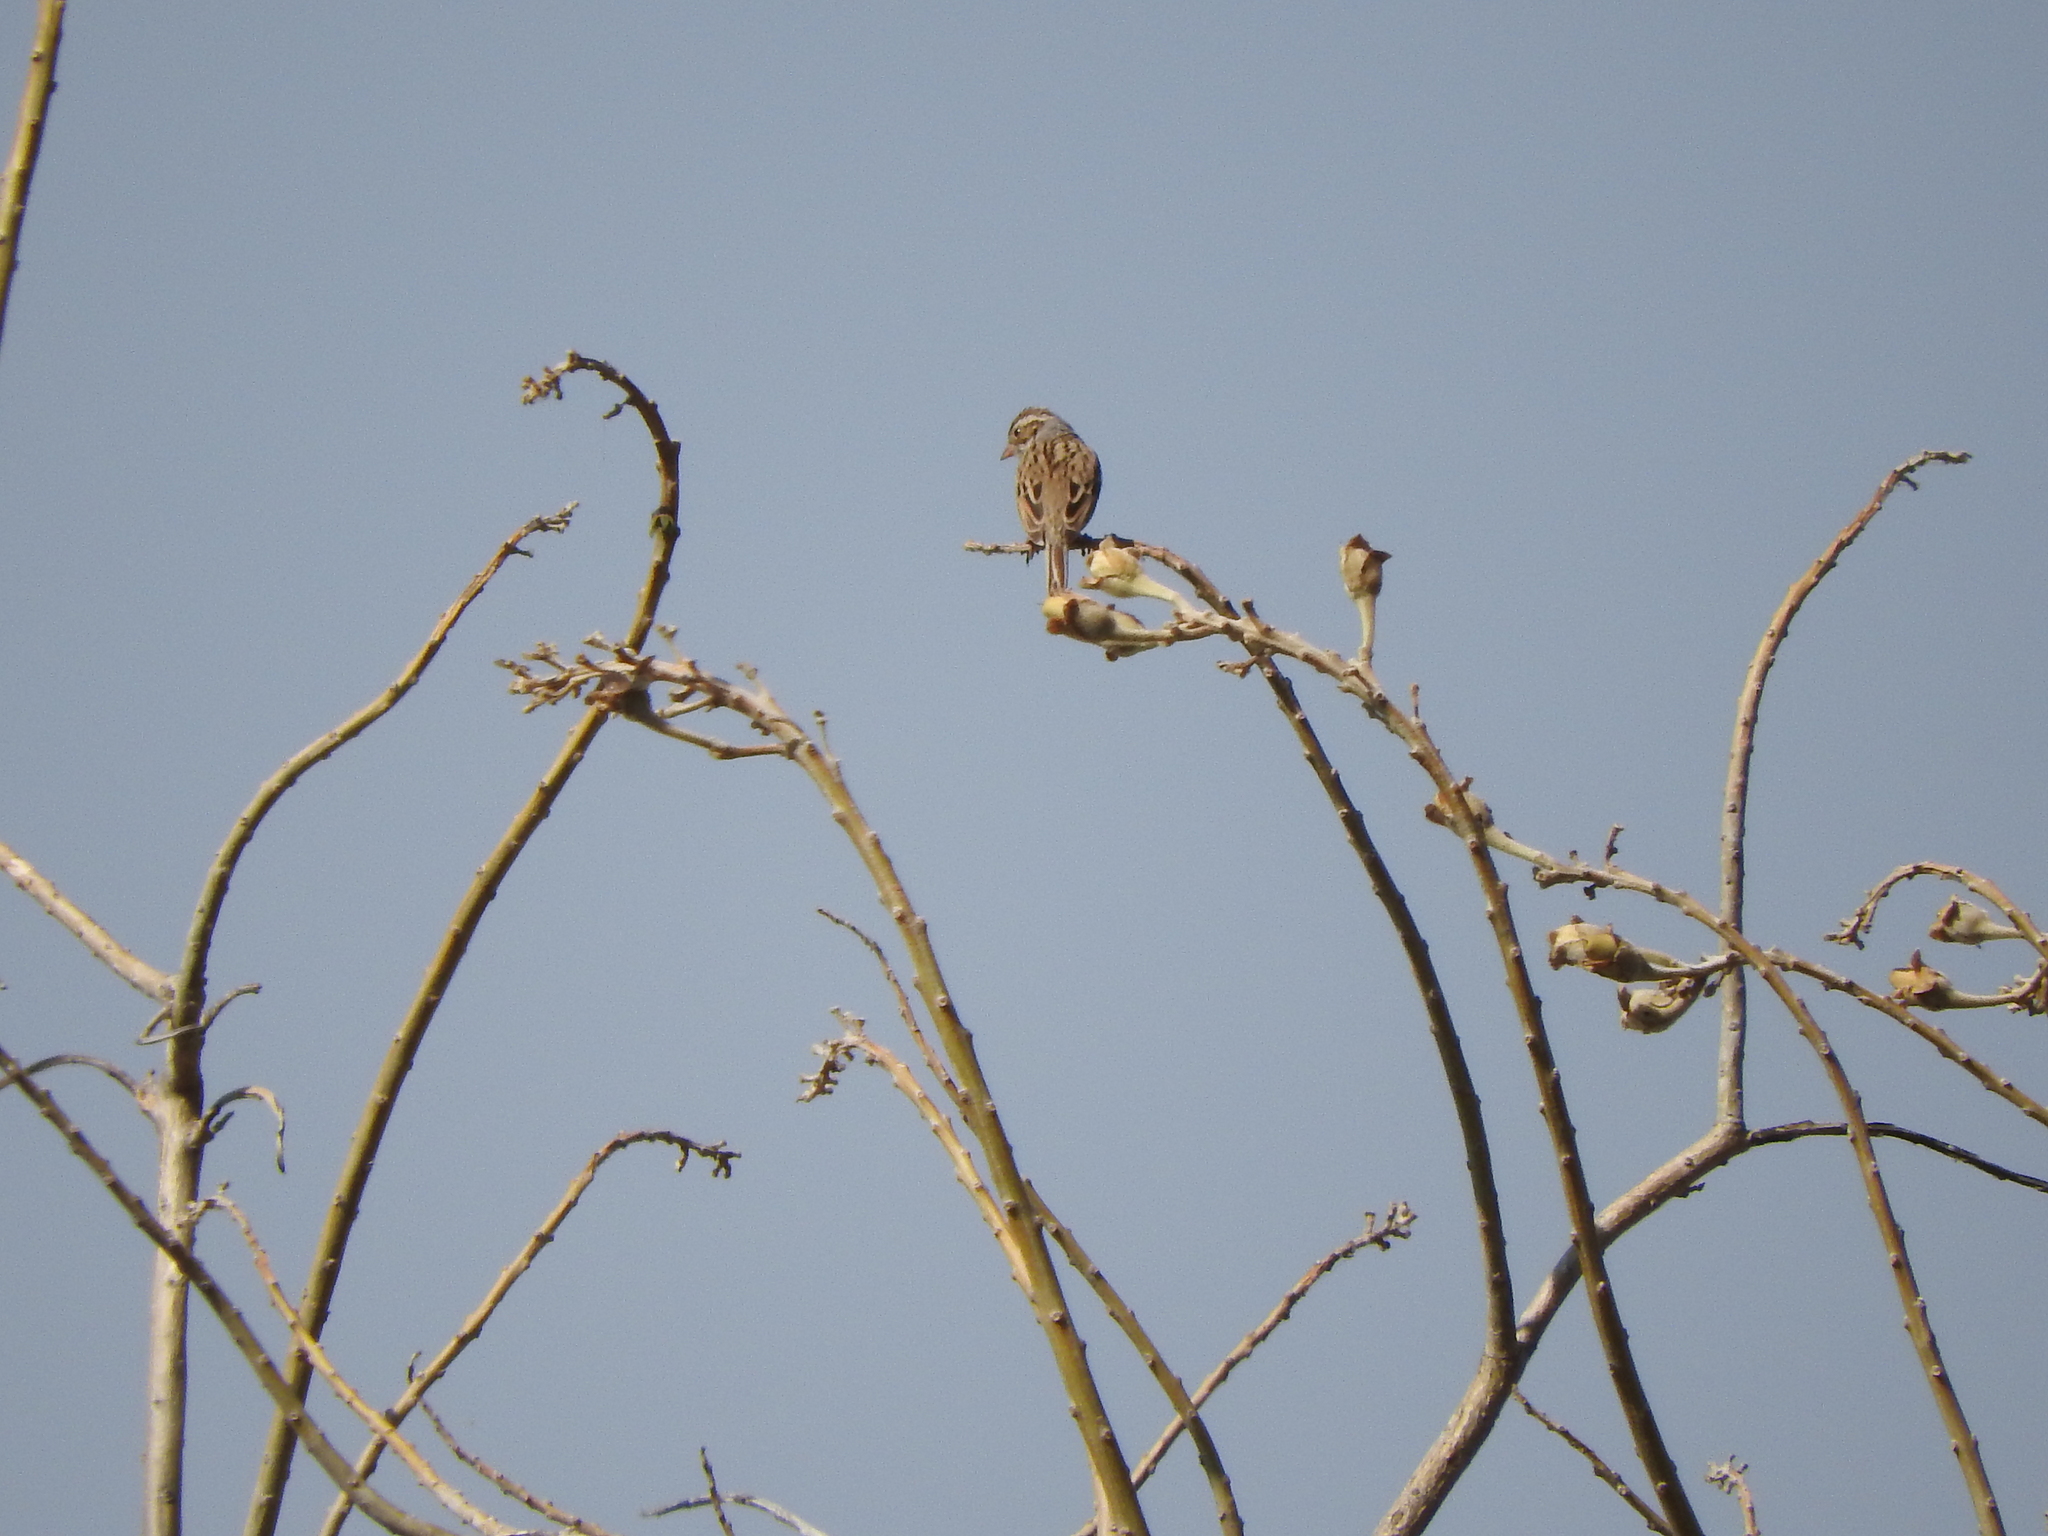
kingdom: Animalia
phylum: Chordata
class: Aves
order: Passeriformes
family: Passerellidae
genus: Spizella
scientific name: Spizella pallida
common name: Clay-colored sparrow
